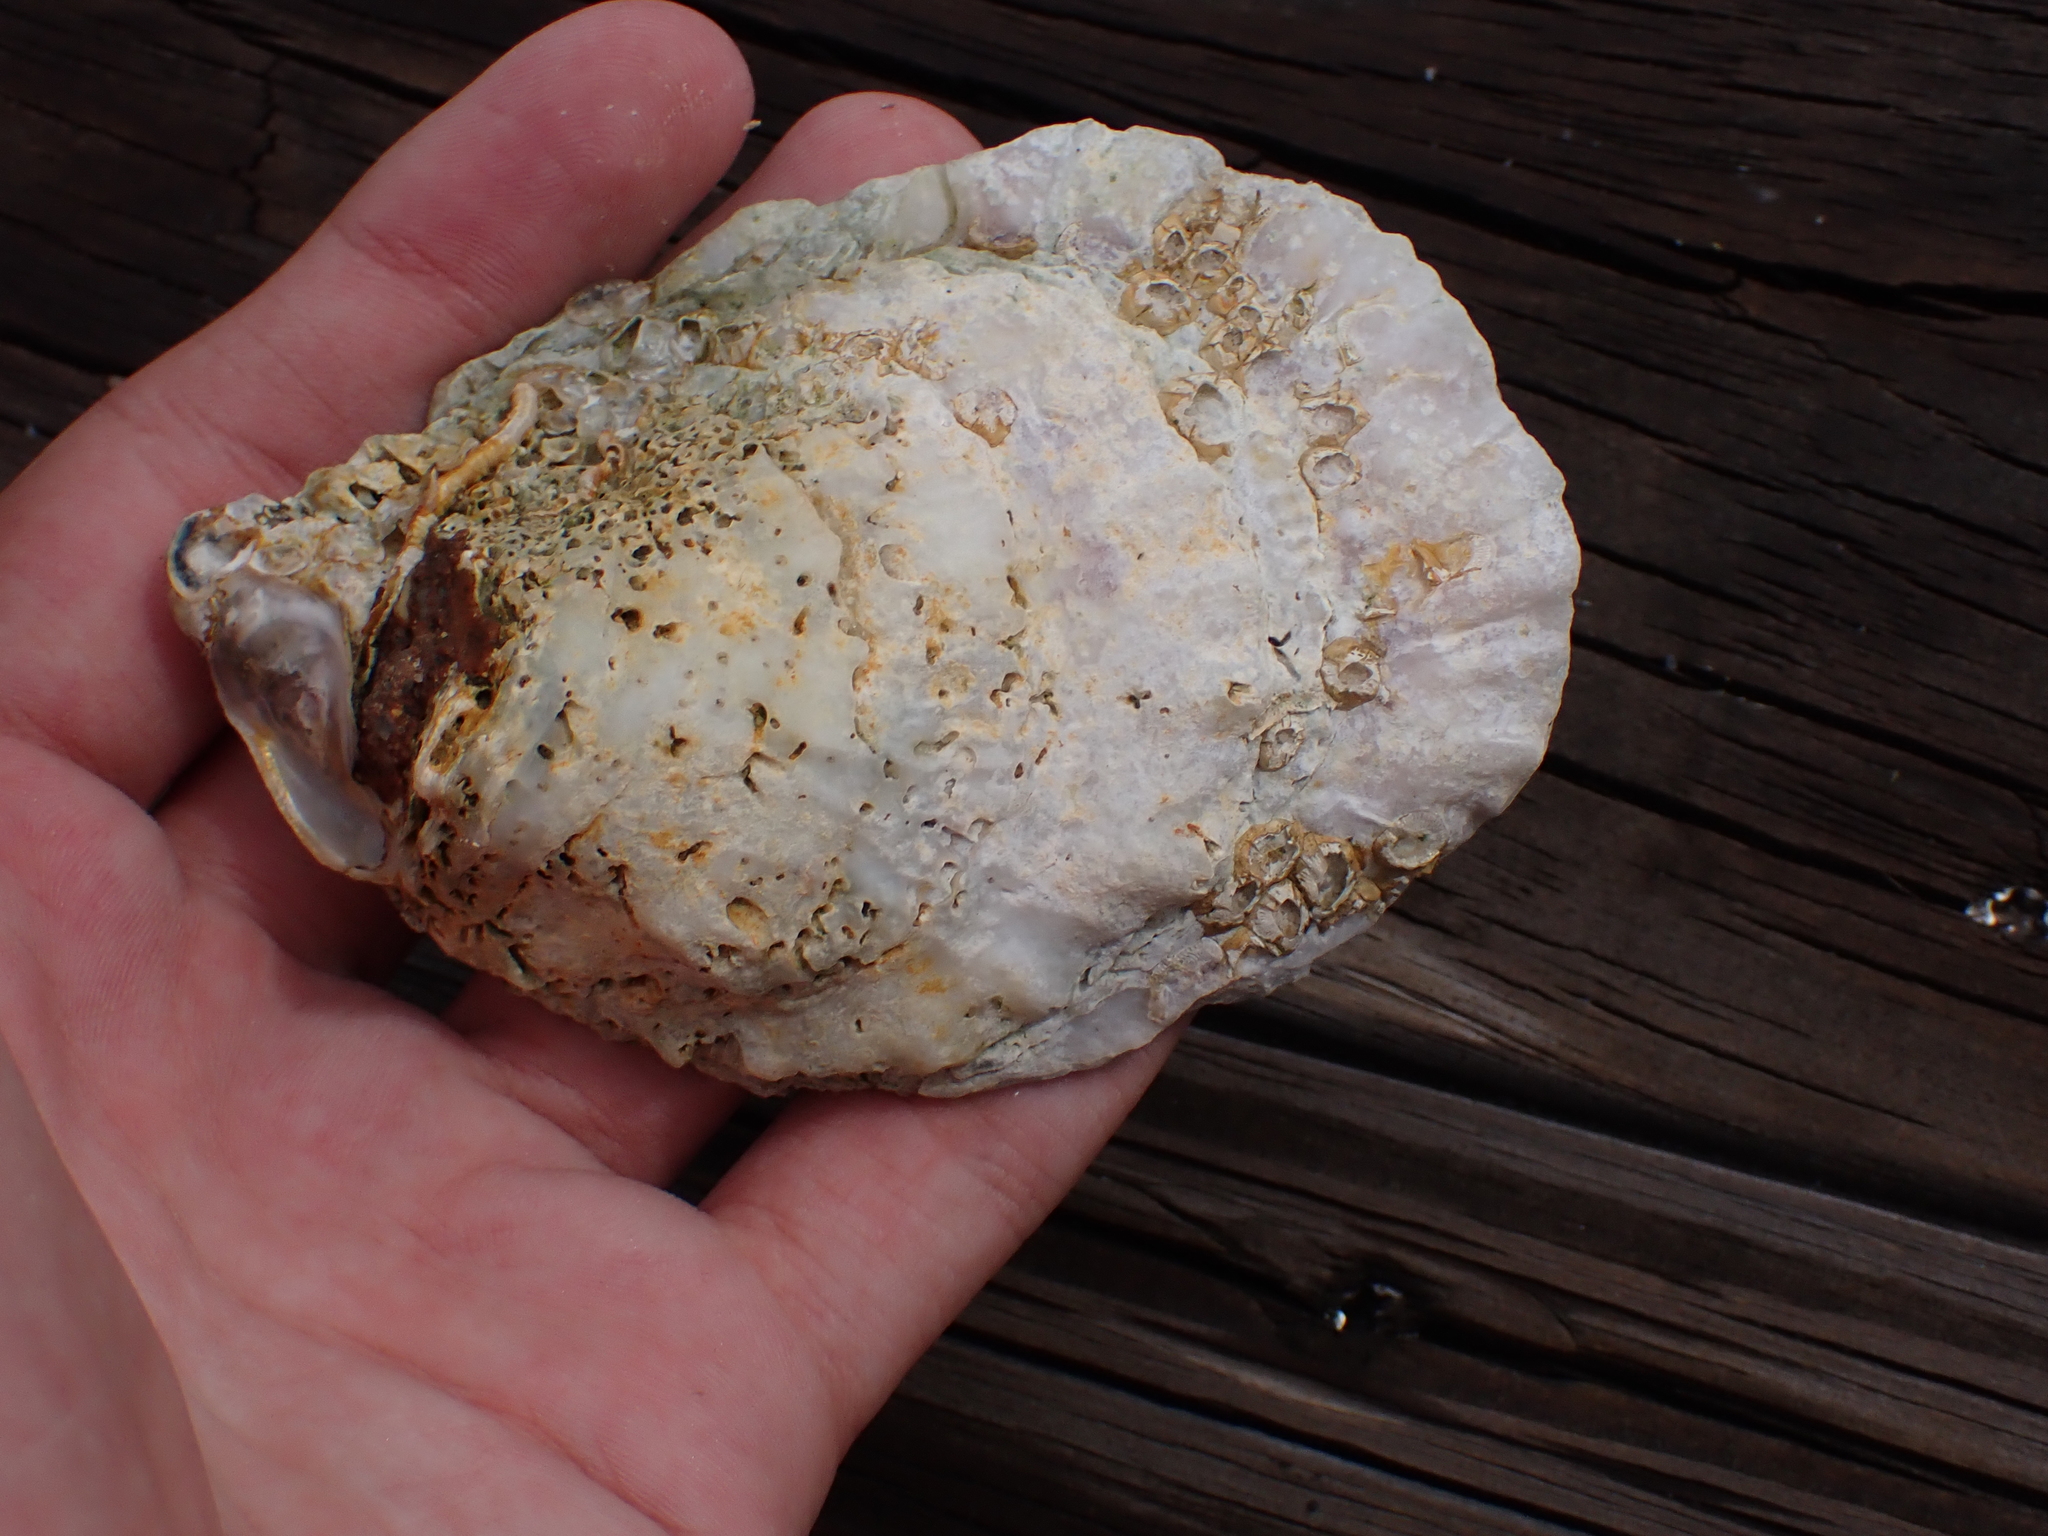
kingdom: Animalia
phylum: Mollusca
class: Bivalvia
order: Ostreida
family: Ostreidae
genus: Crassostrea
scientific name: Crassostrea virginica
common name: American oyster
